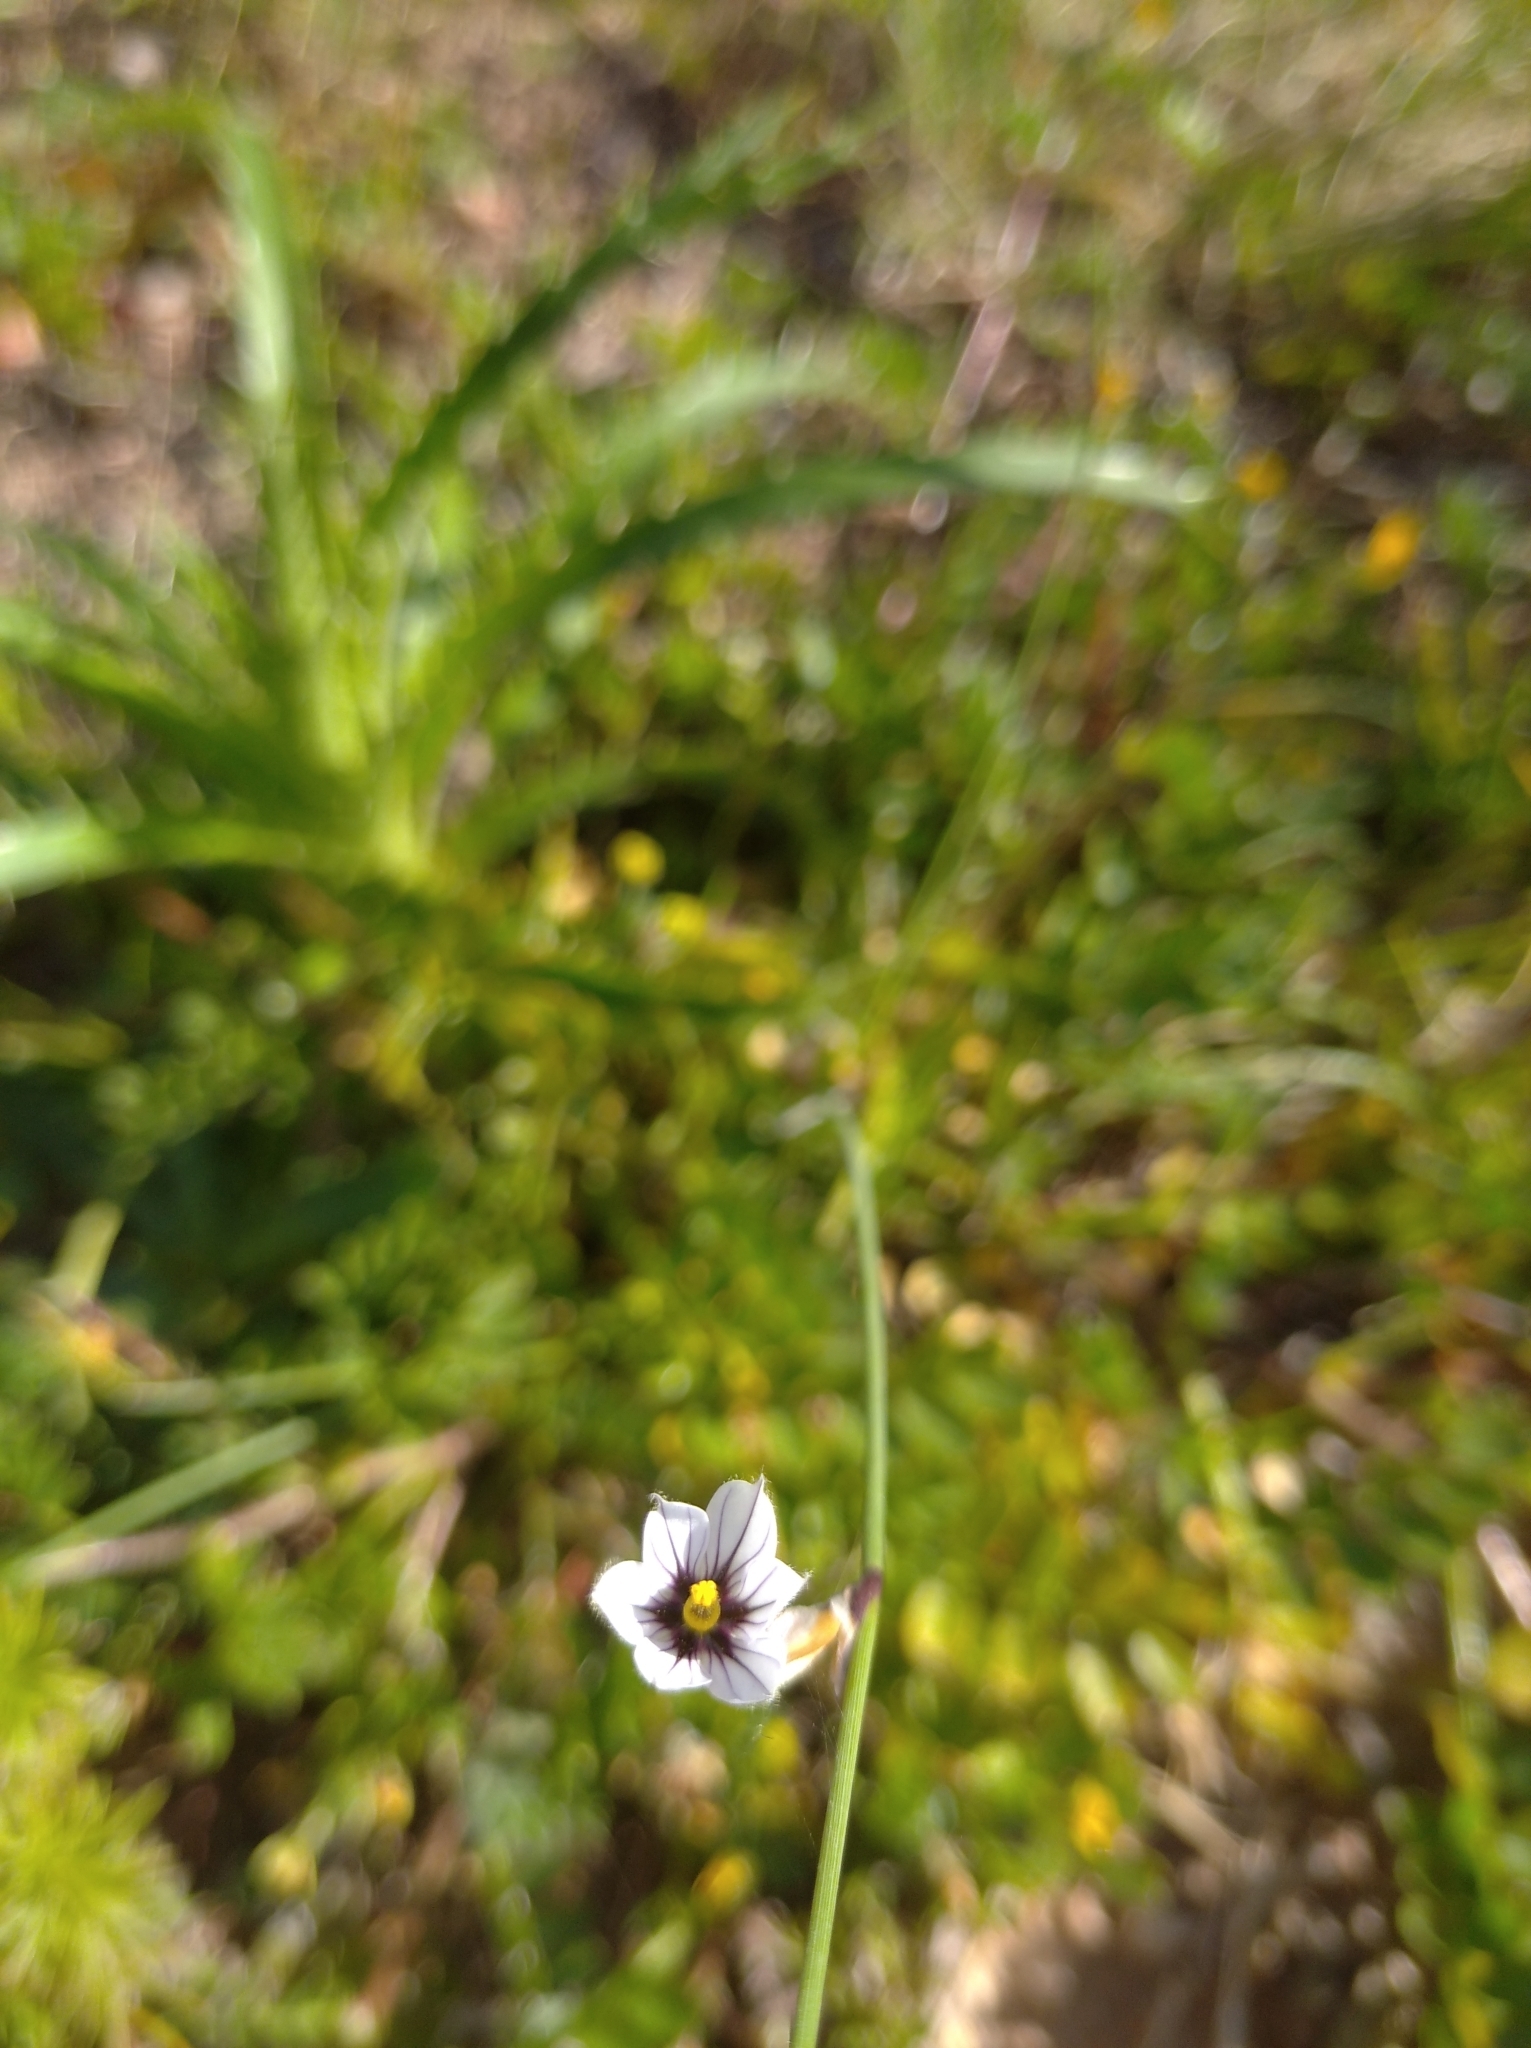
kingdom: Plantae
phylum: Tracheophyta
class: Liliopsida
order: Asparagales
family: Iridaceae
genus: Sisyrinchium
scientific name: Sisyrinchium scariosum
